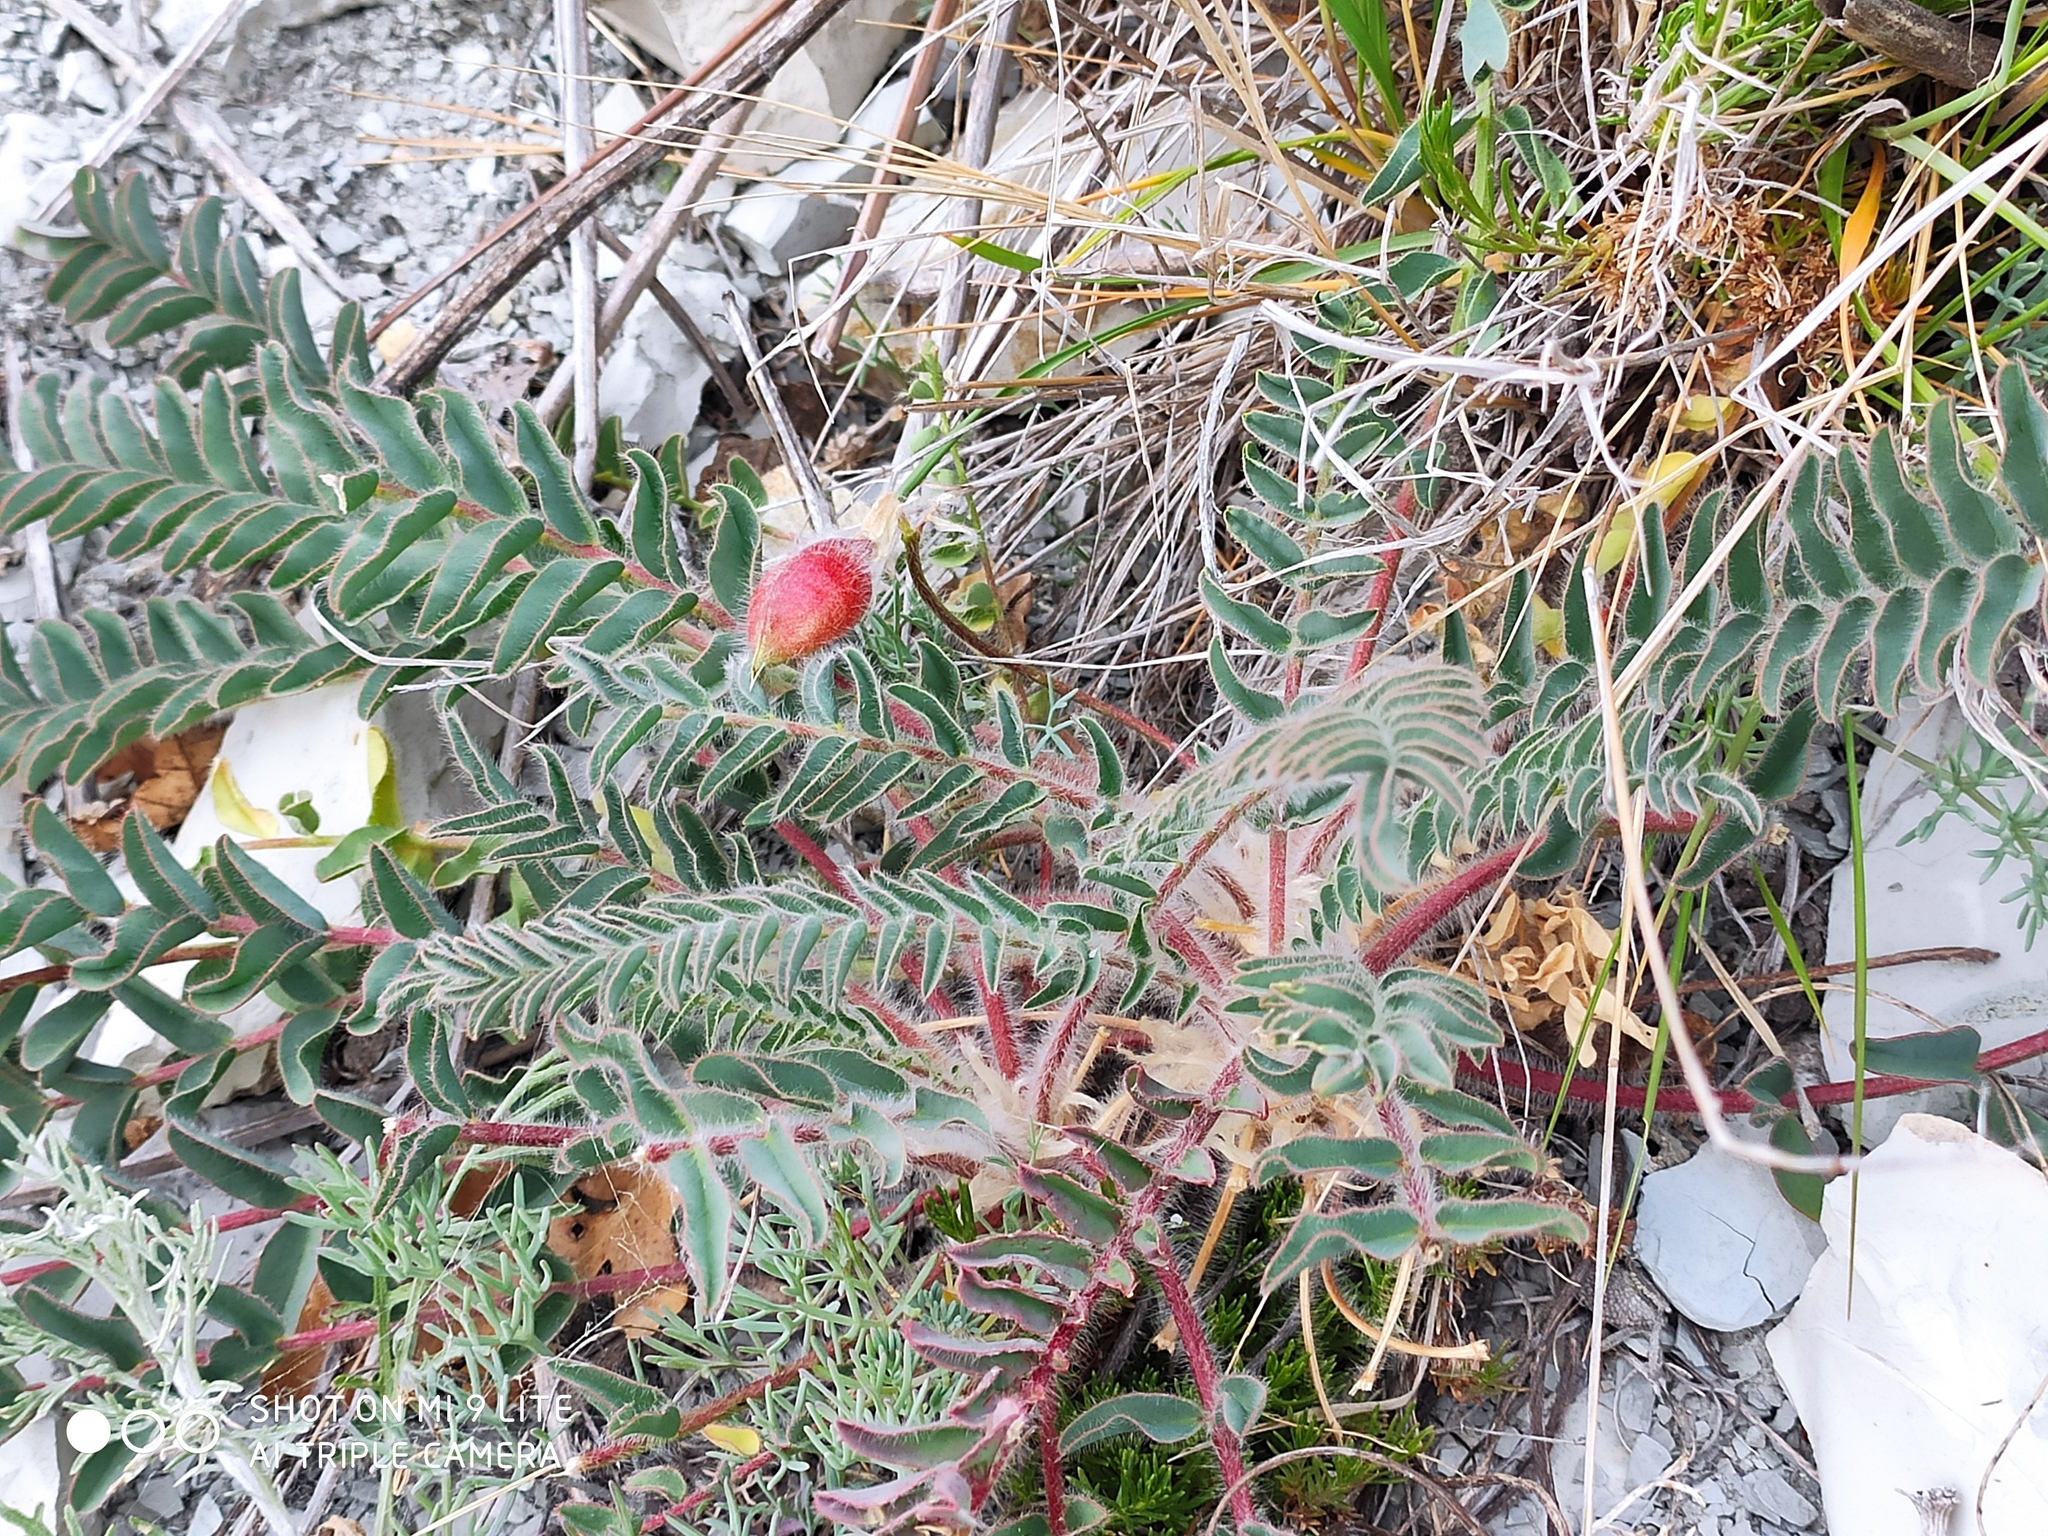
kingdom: Plantae
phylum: Tracheophyta
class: Magnoliopsida
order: Fabales
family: Fabaceae
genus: Astragalus
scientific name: Astragalus utriger
